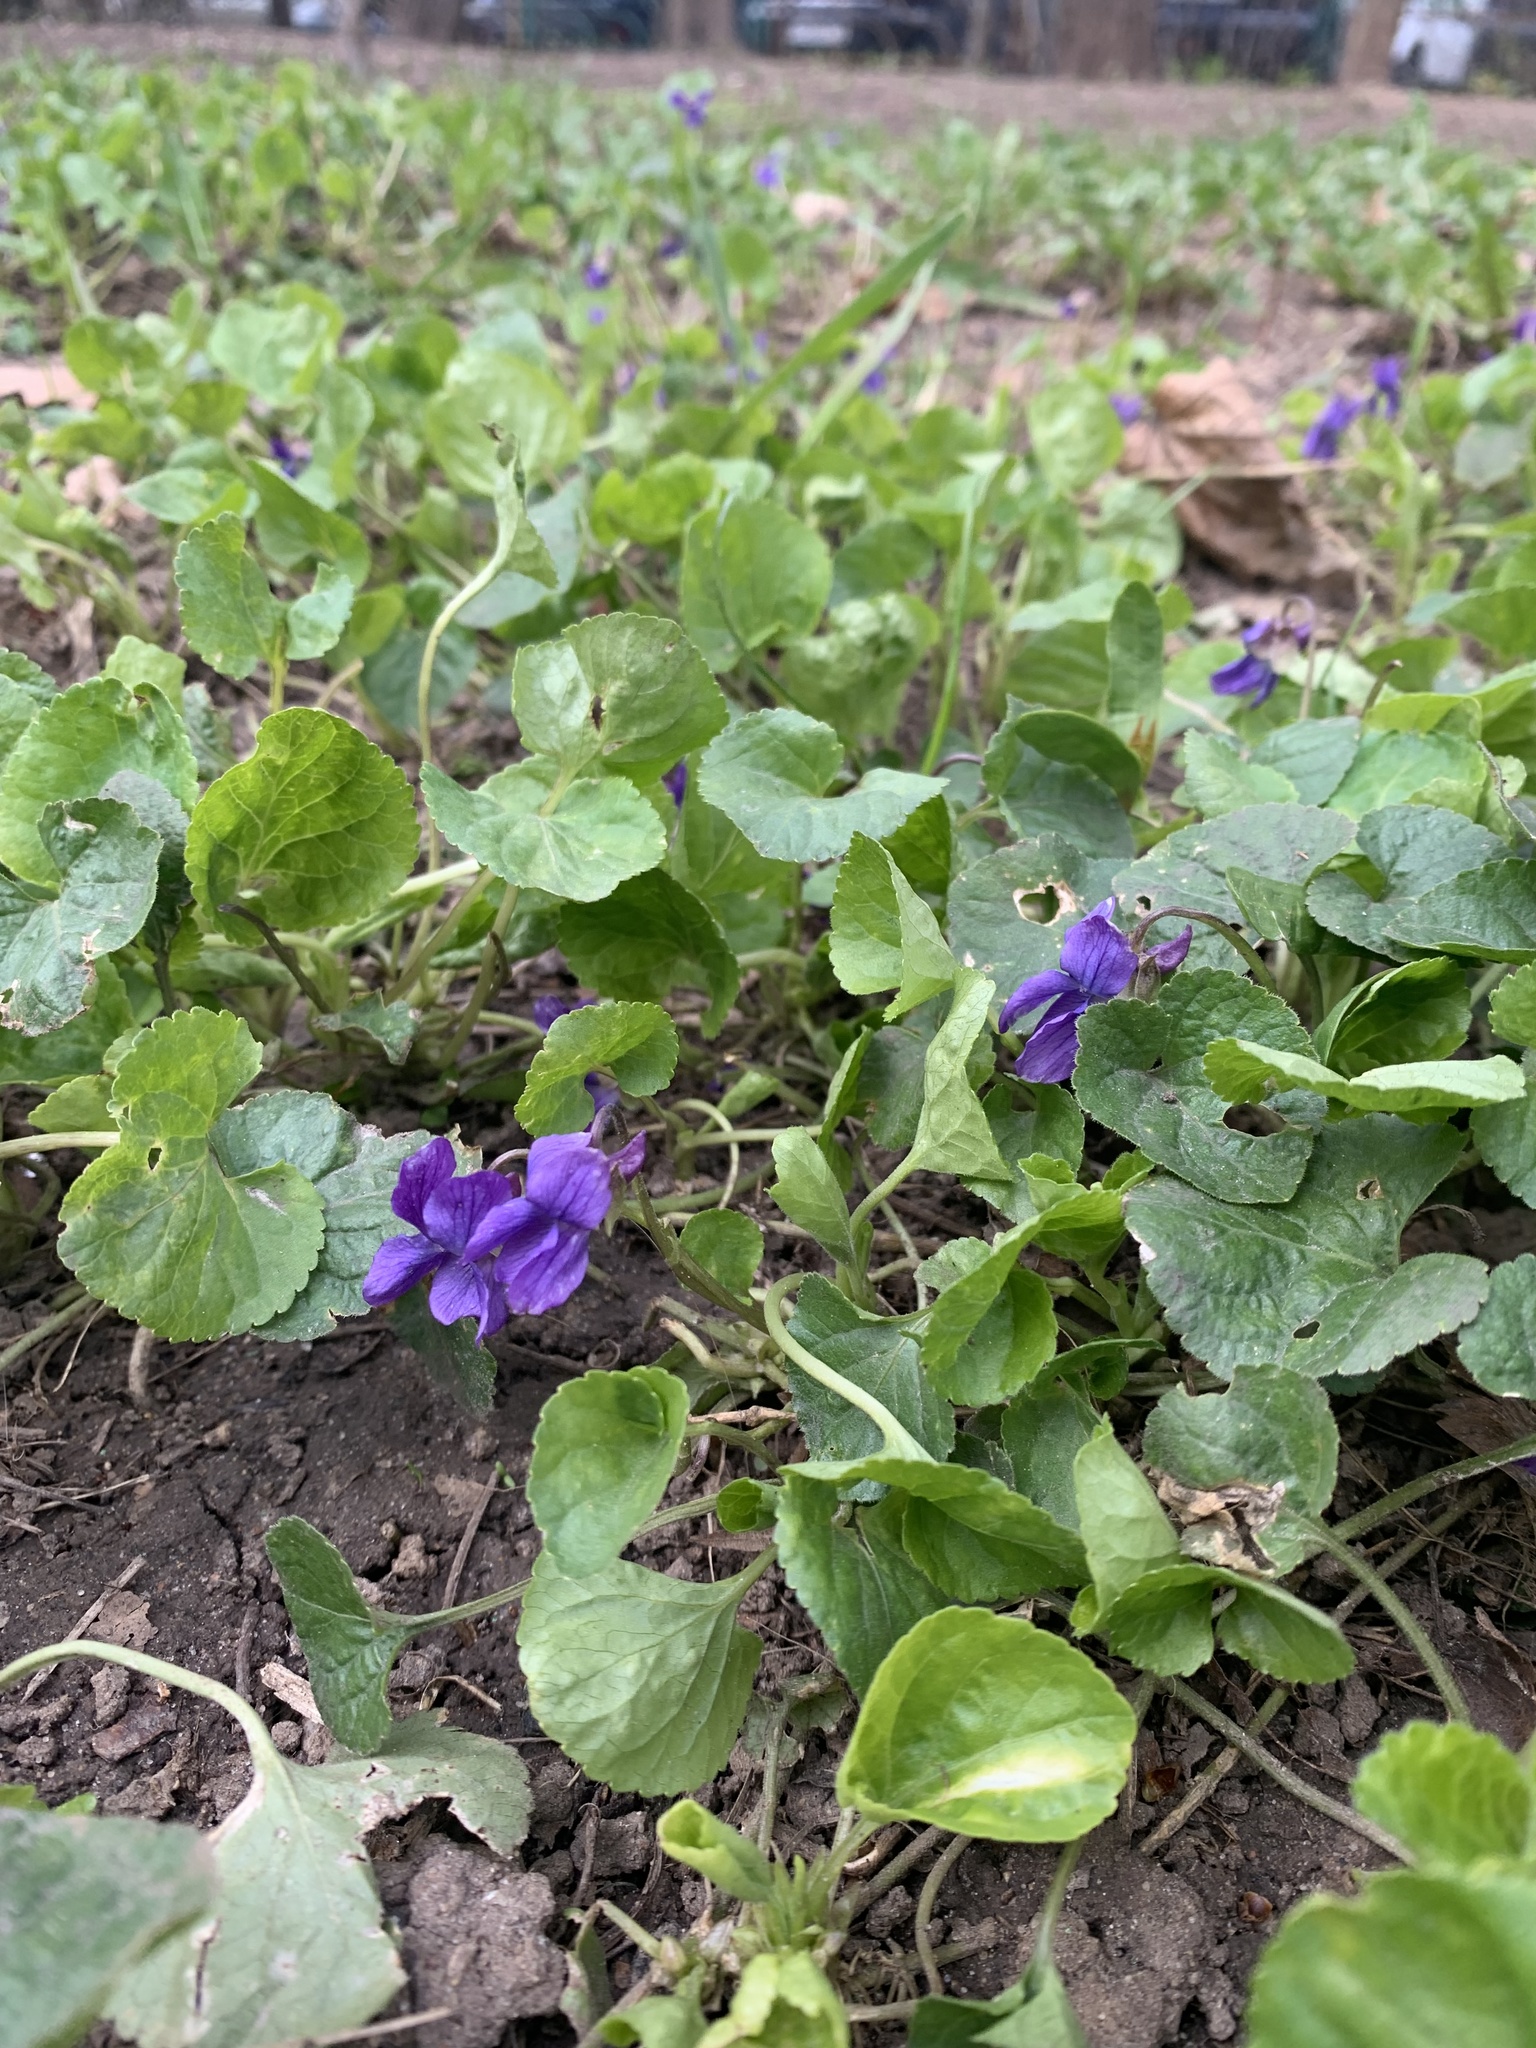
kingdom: Plantae
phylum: Tracheophyta
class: Magnoliopsida
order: Malpighiales
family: Violaceae
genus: Viola
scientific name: Viola odorata
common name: Sweet violet
